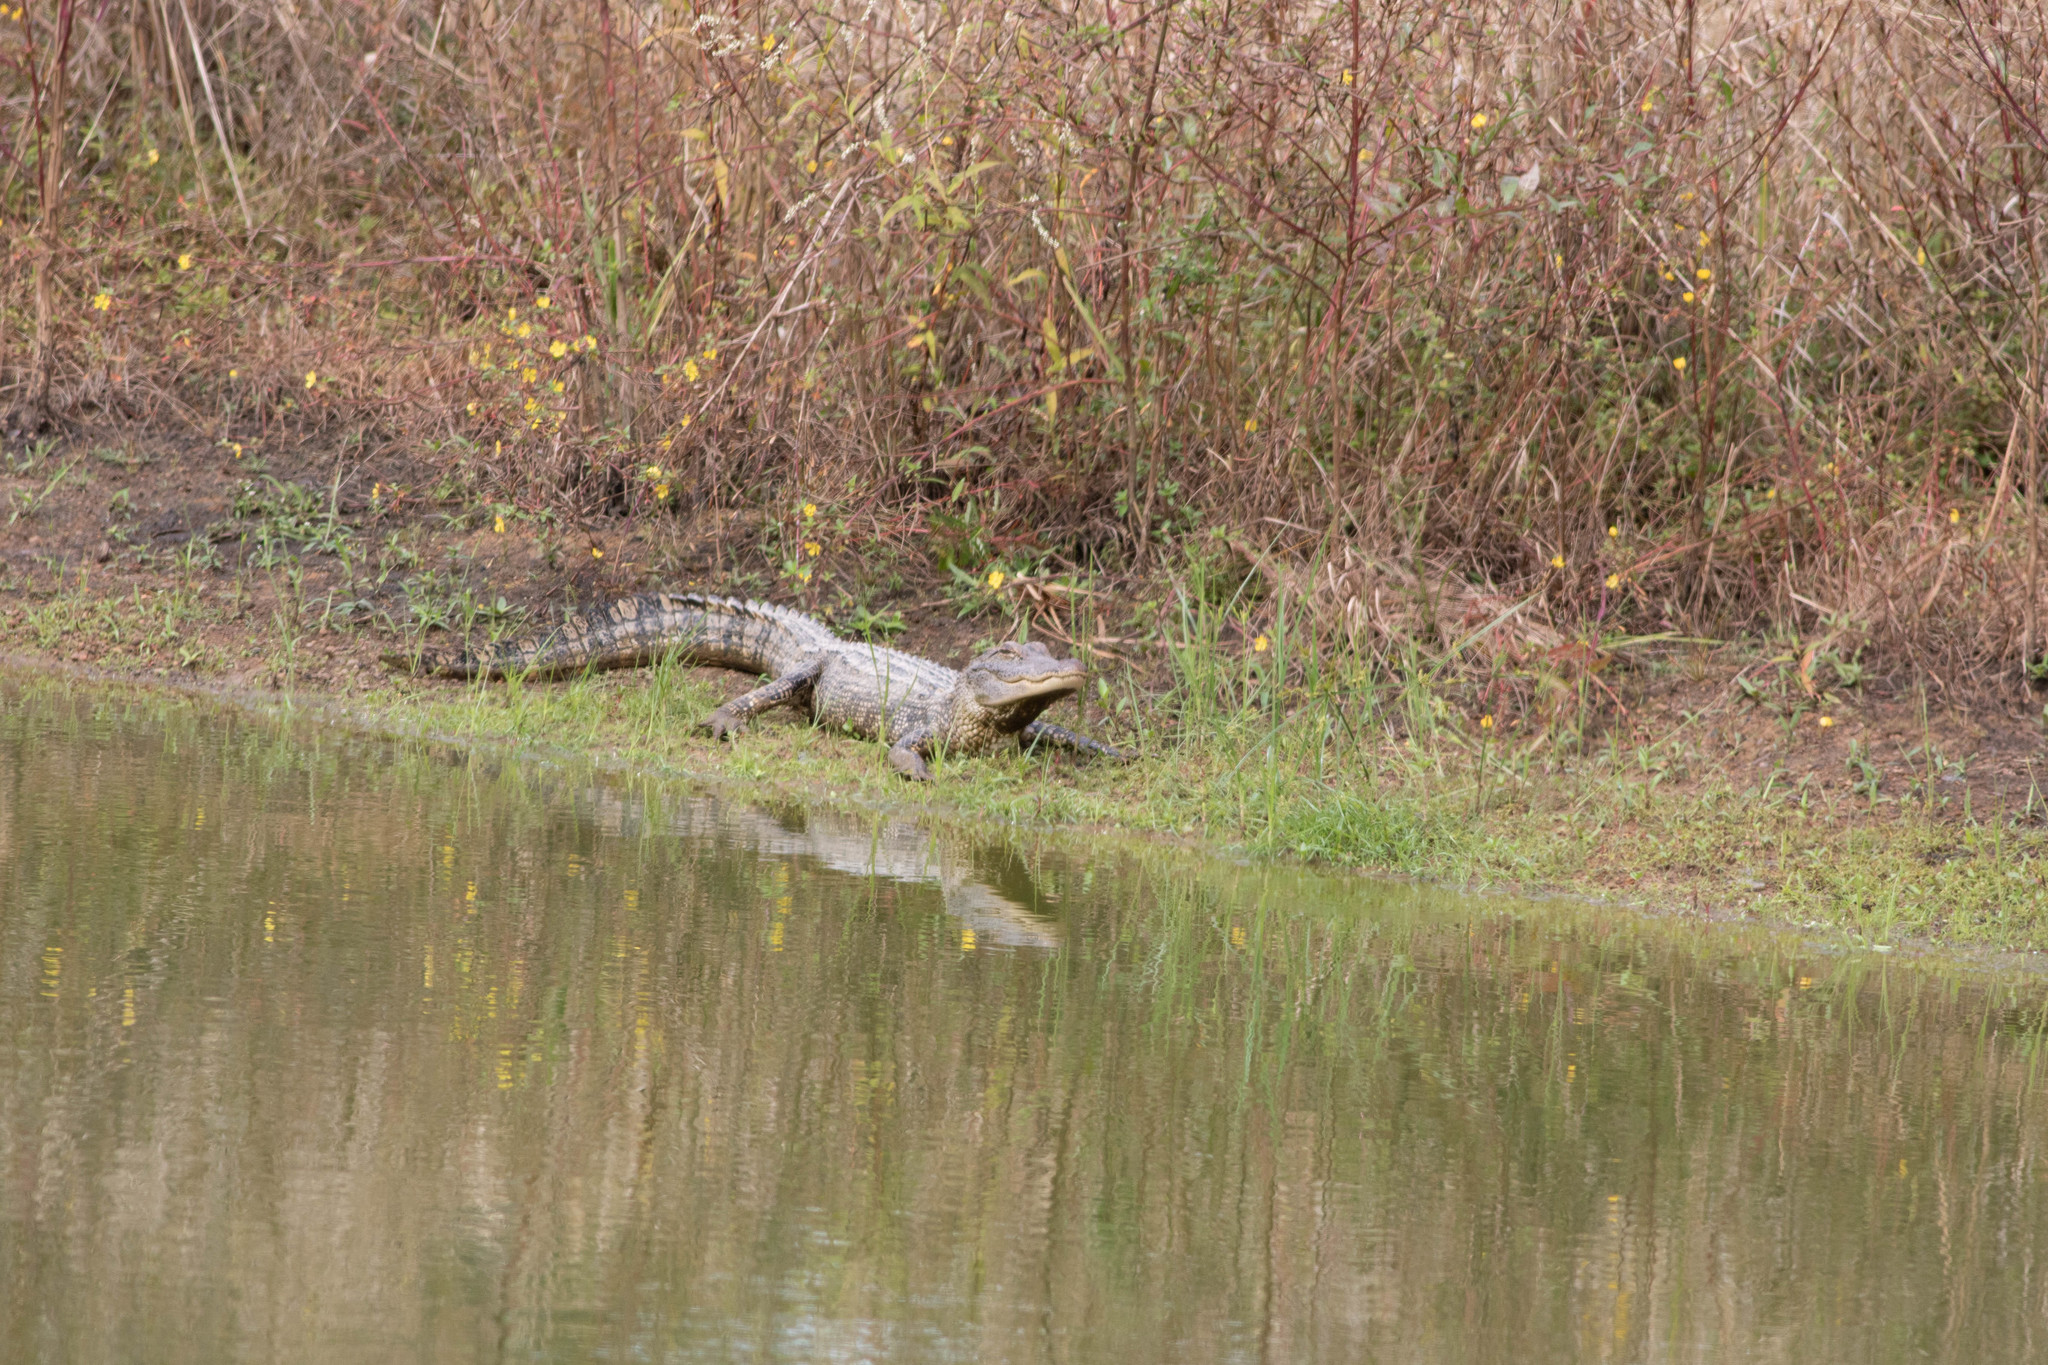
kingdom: Animalia
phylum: Chordata
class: Crocodylia
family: Alligatoridae
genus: Alligator
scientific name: Alligator mississippiensis
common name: American alligator
